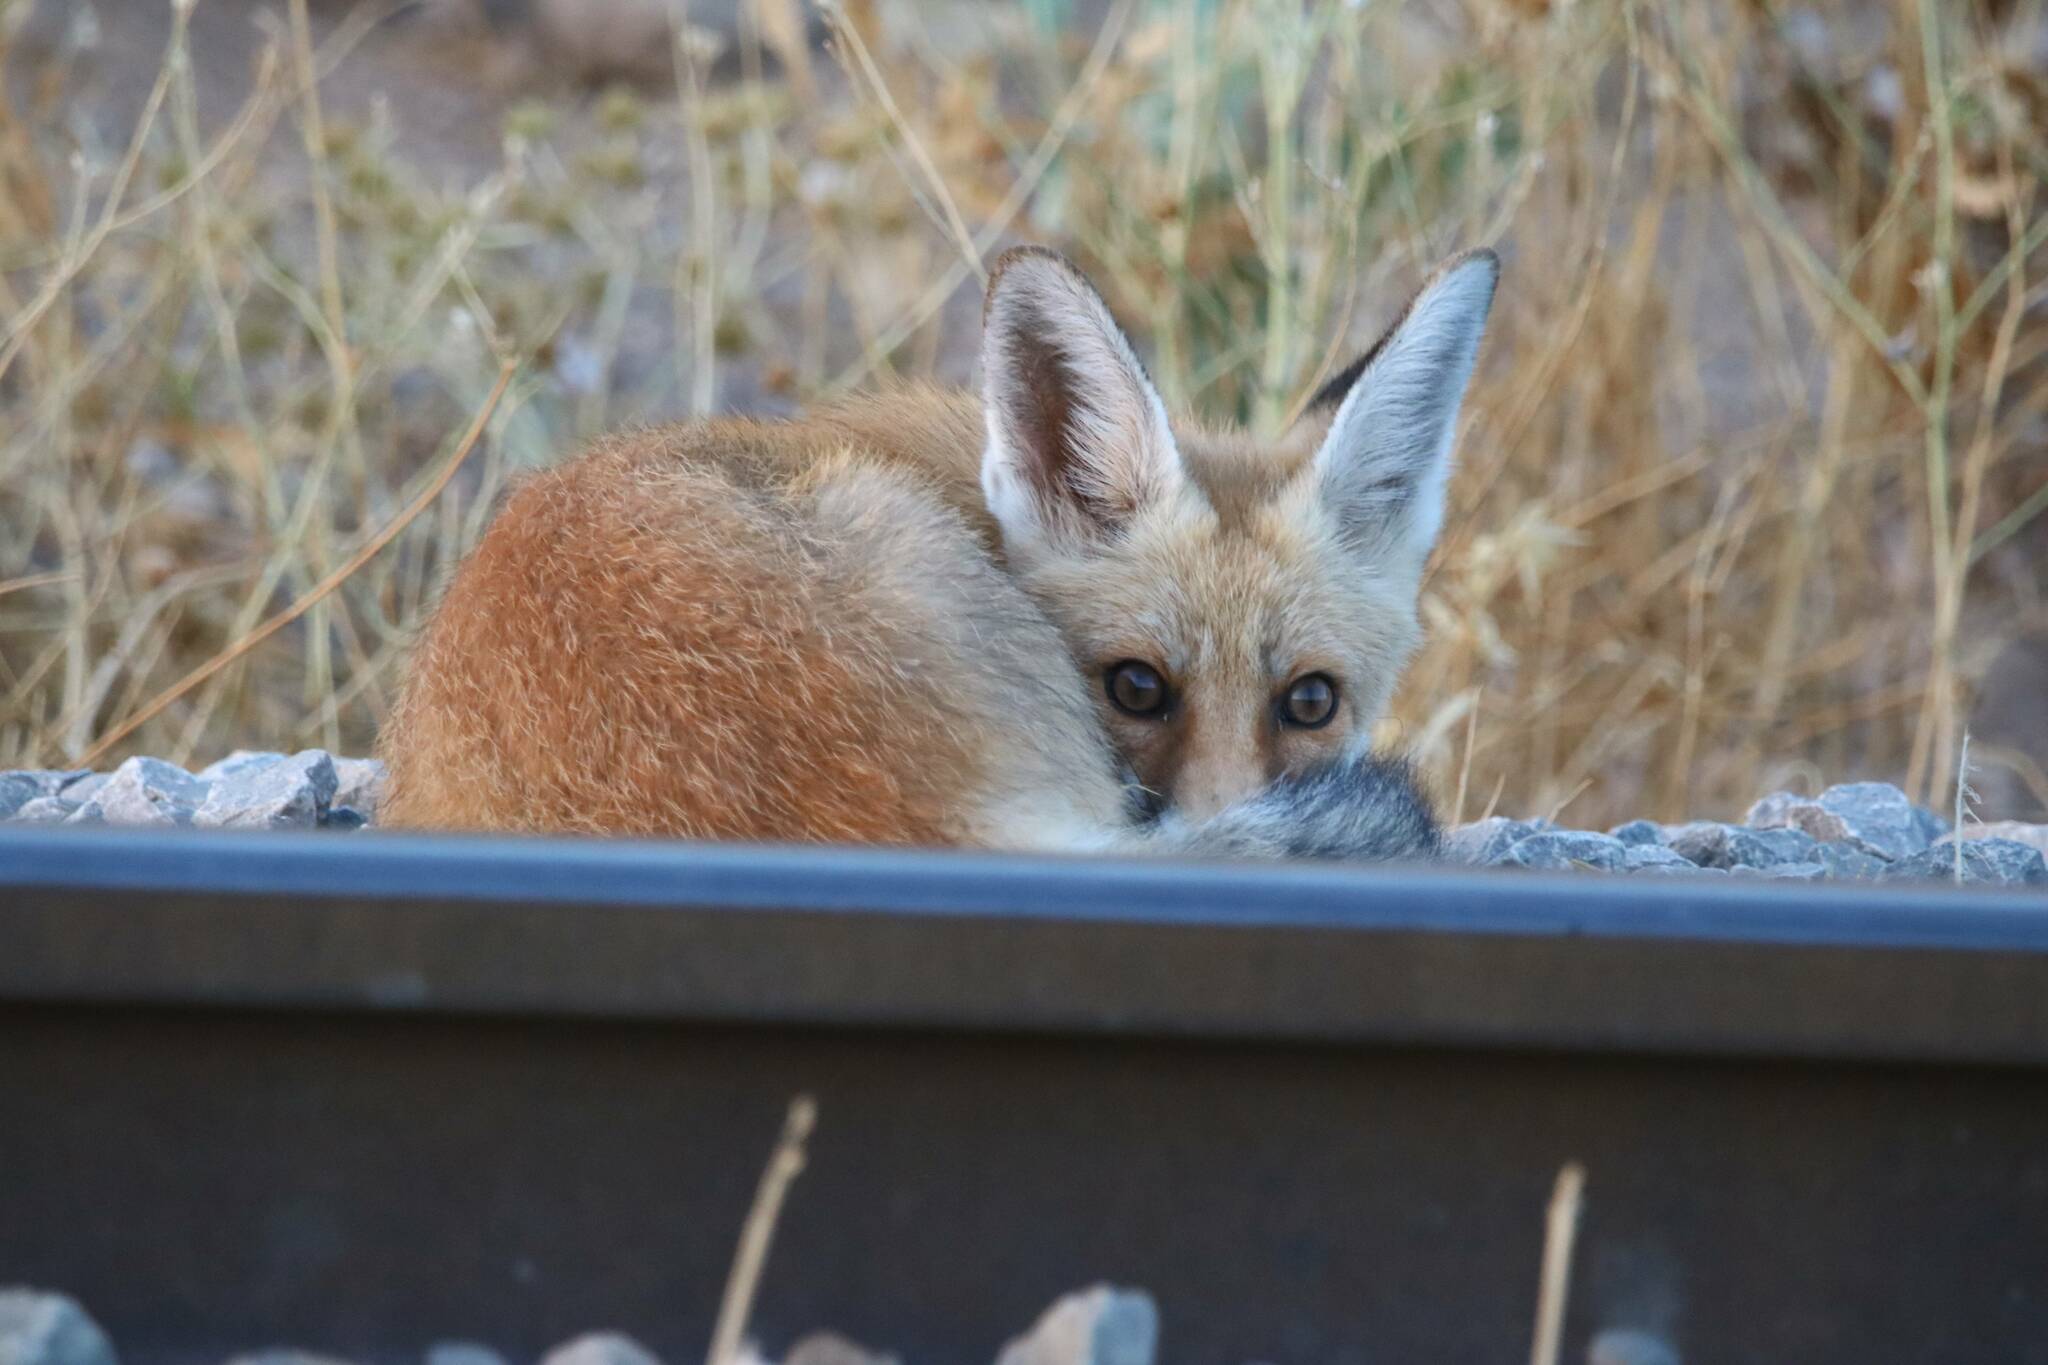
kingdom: Animalia
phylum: Chordata
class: Mammalia
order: Carnivora
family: Canidae
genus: Vulpes
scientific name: Vulpes vulpes
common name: Red fox
